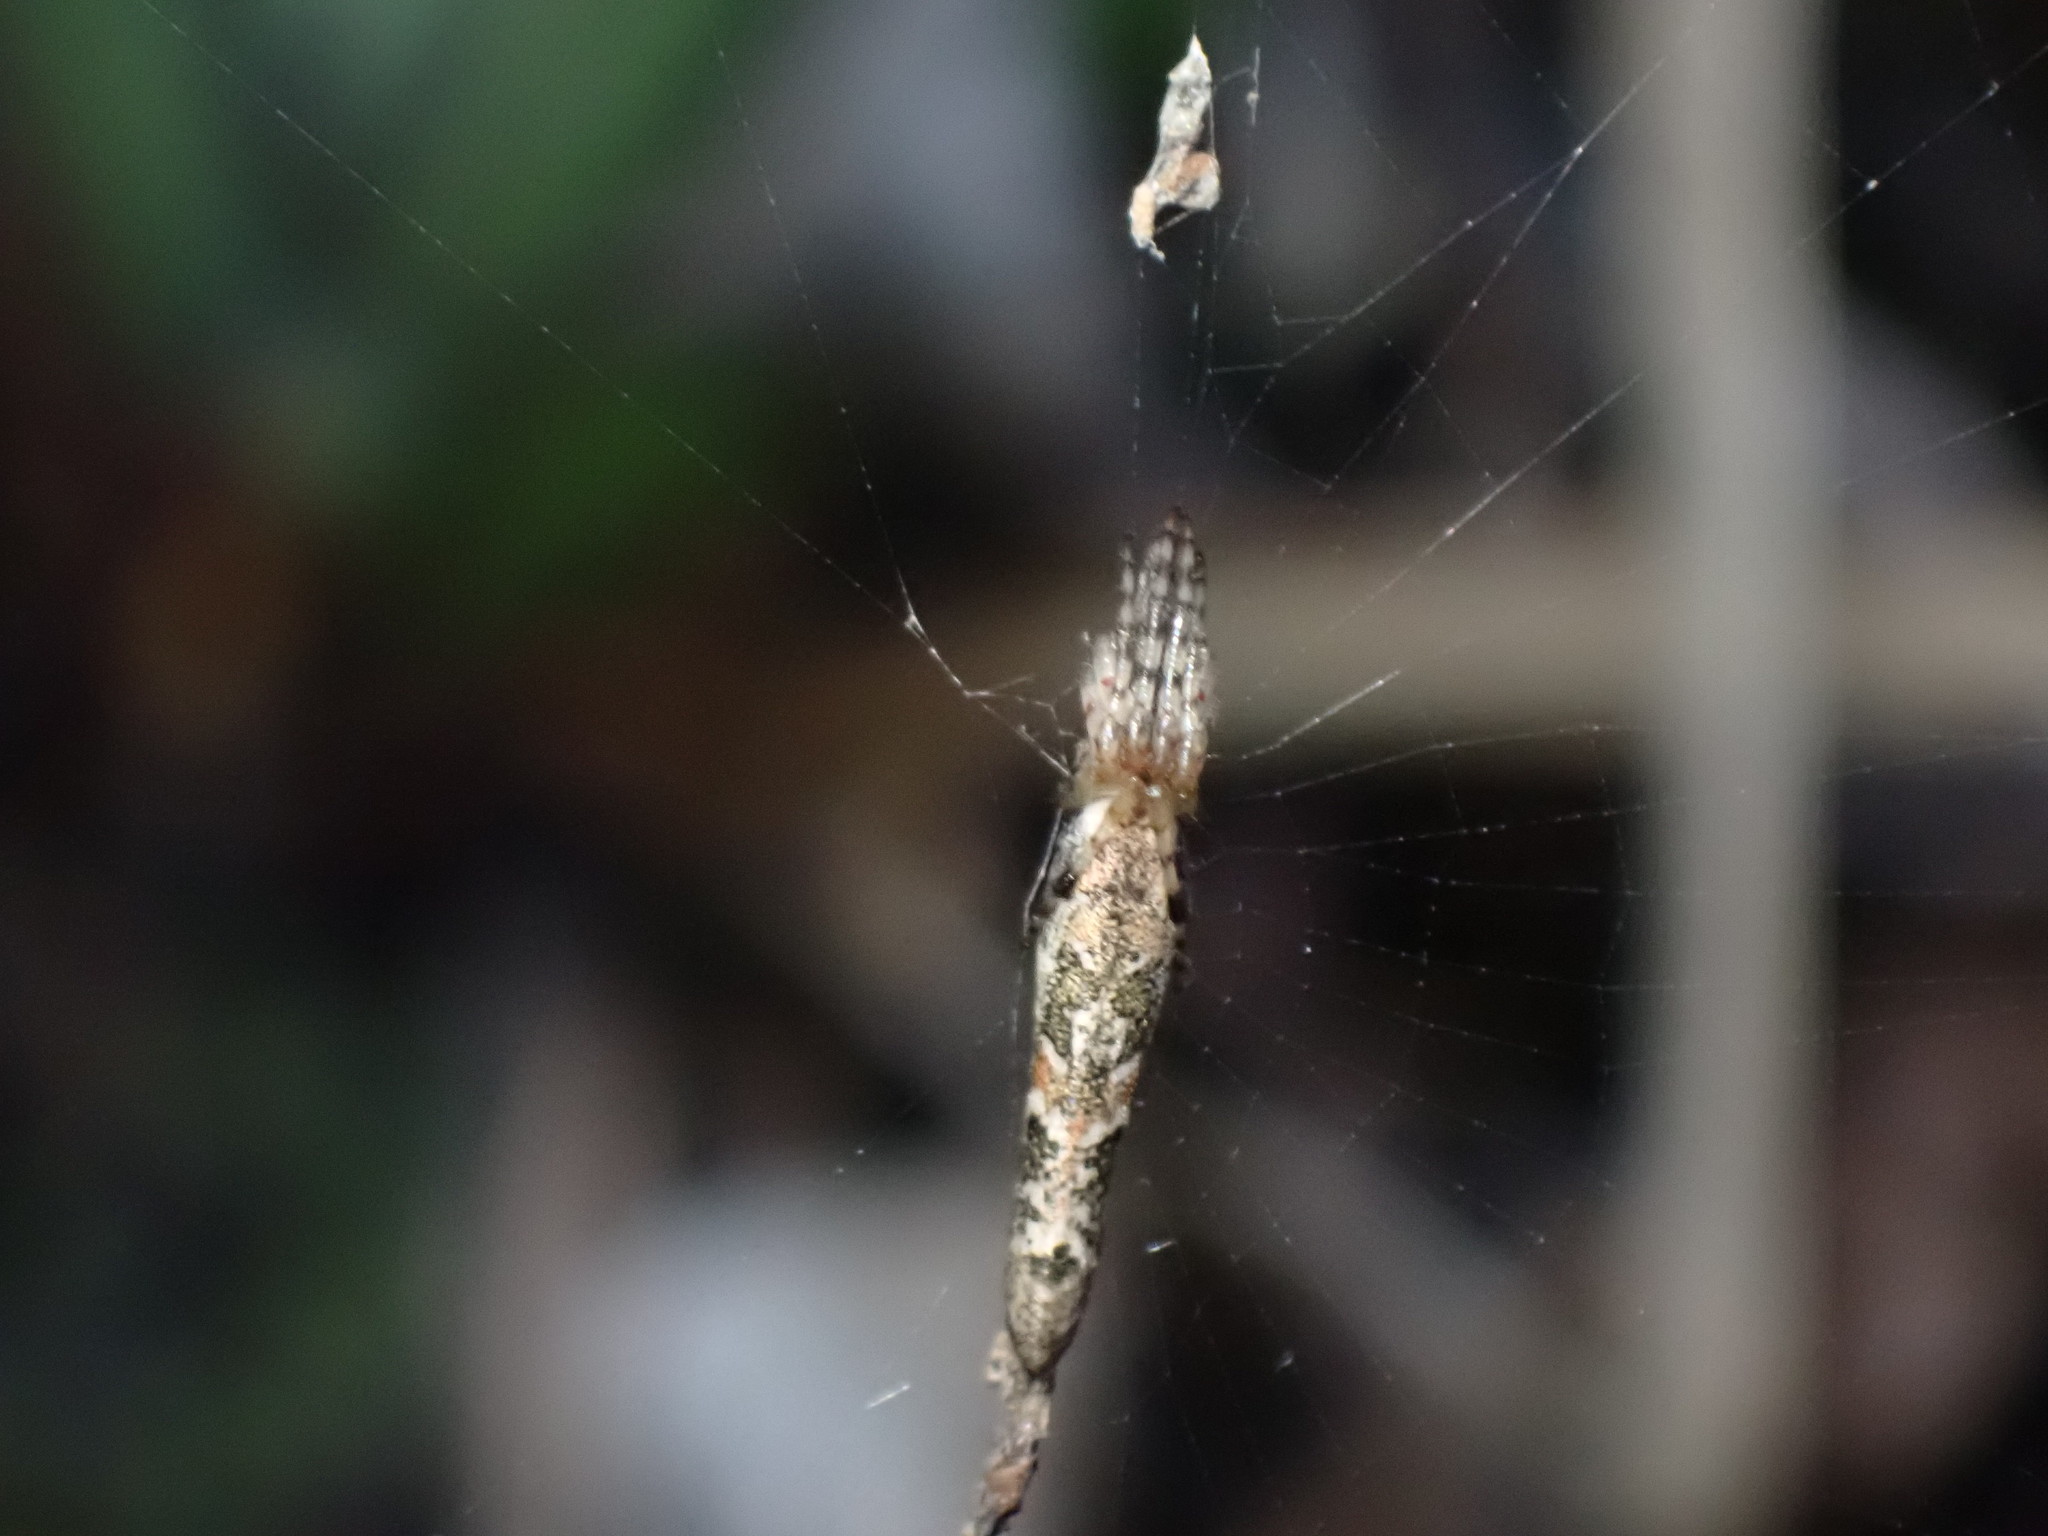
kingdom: Animalia
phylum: Arthropoda
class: Arachnida
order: Araneae
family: Araneidae
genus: Nemoscolus
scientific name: Nemoscolus elongatus
